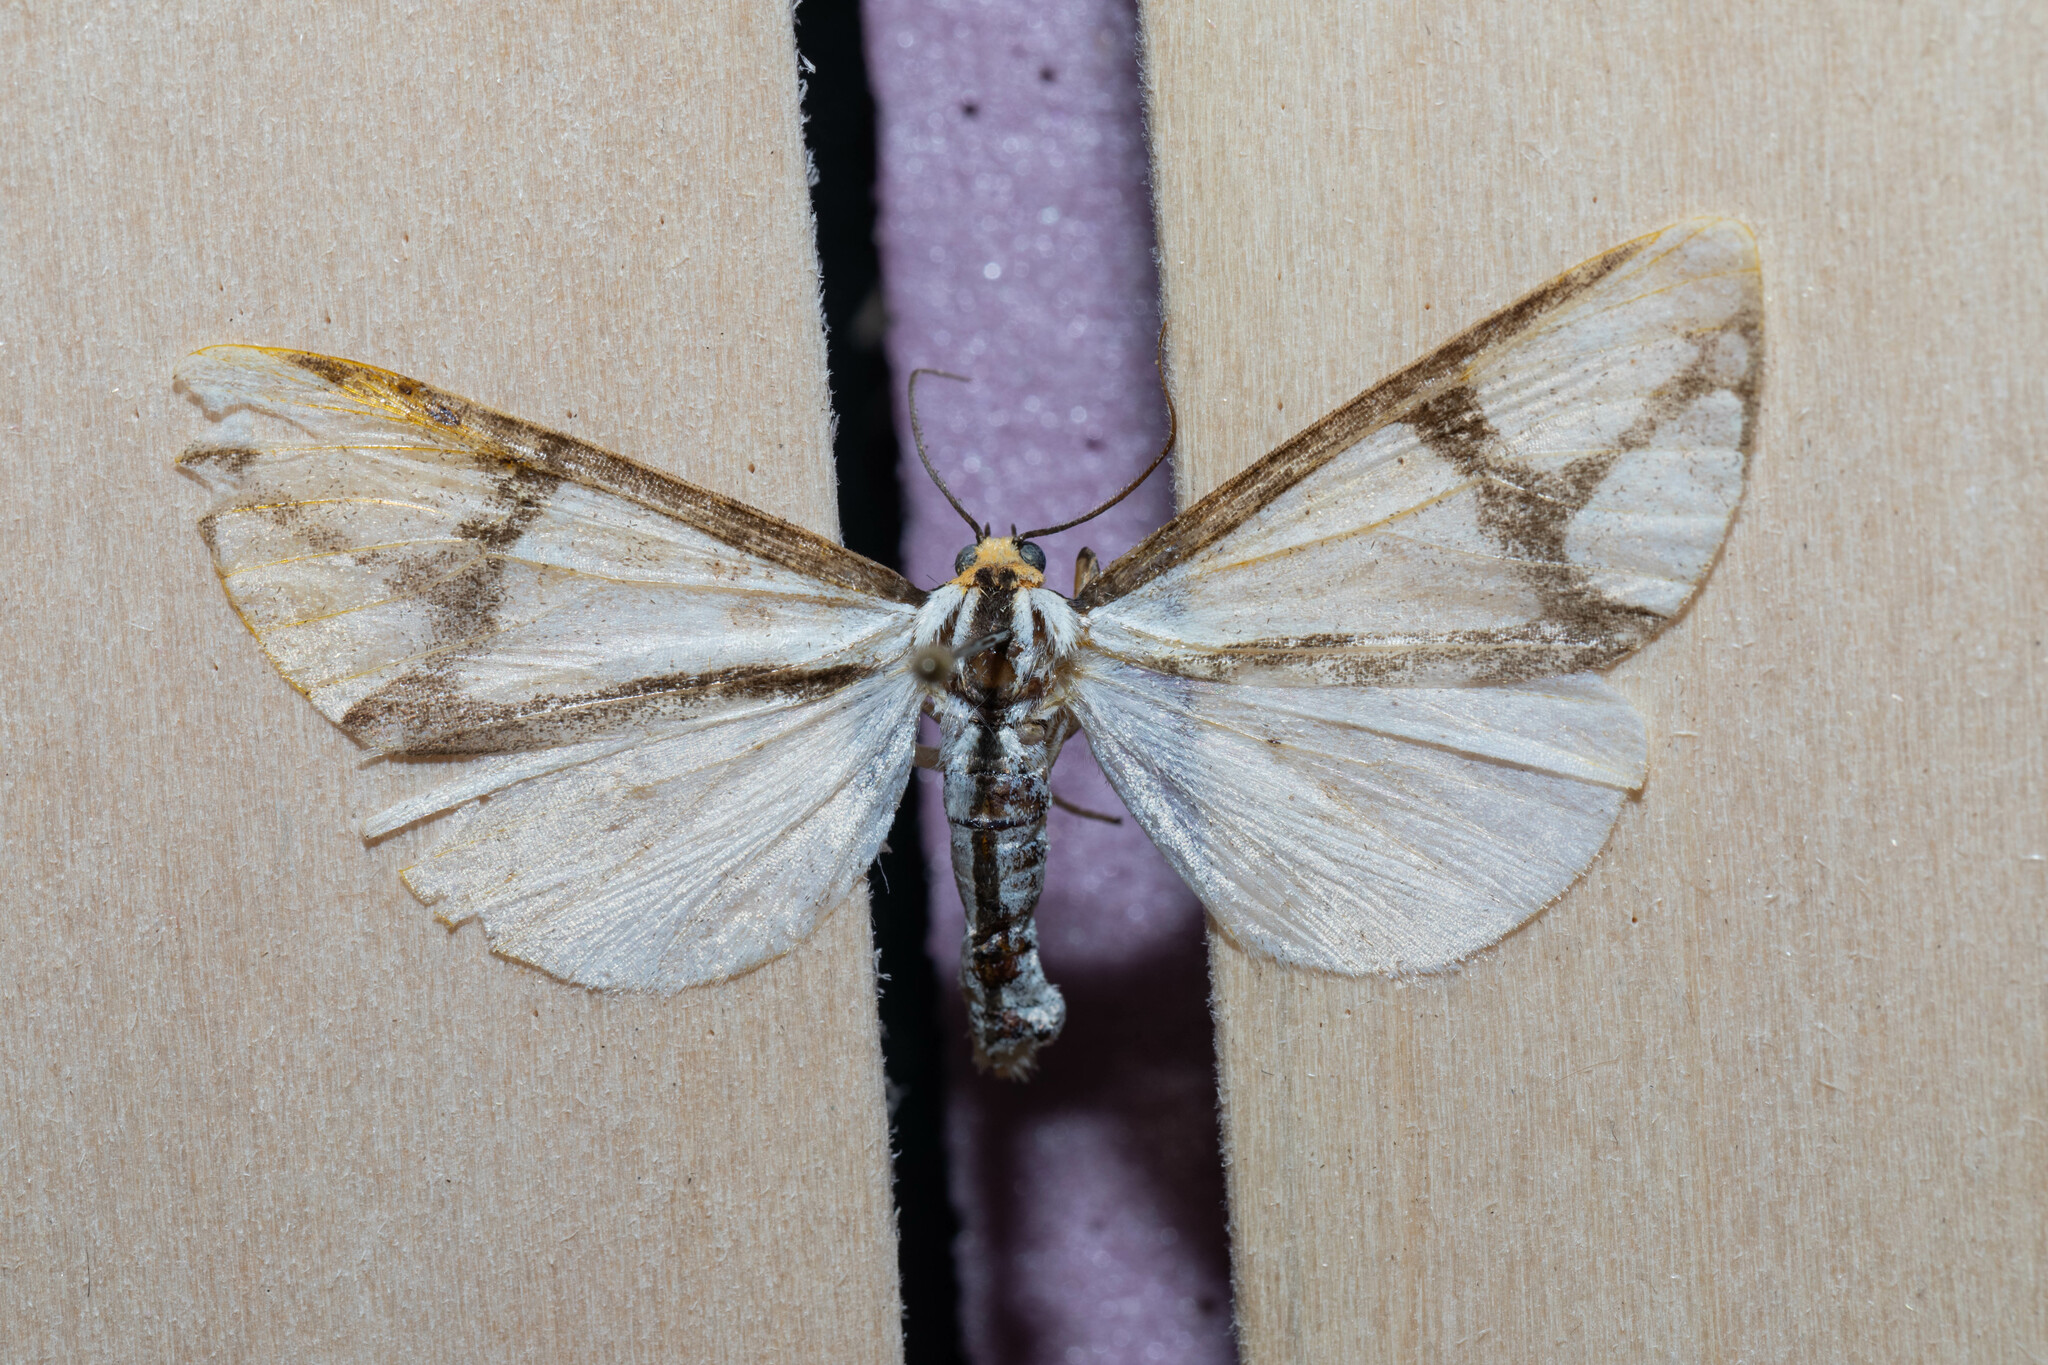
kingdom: Animalia
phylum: Arthropoda
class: Insecta
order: Lepidoptera
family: Erebidae
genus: Haploa
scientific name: Haploa contigua
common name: Neighbor moth
